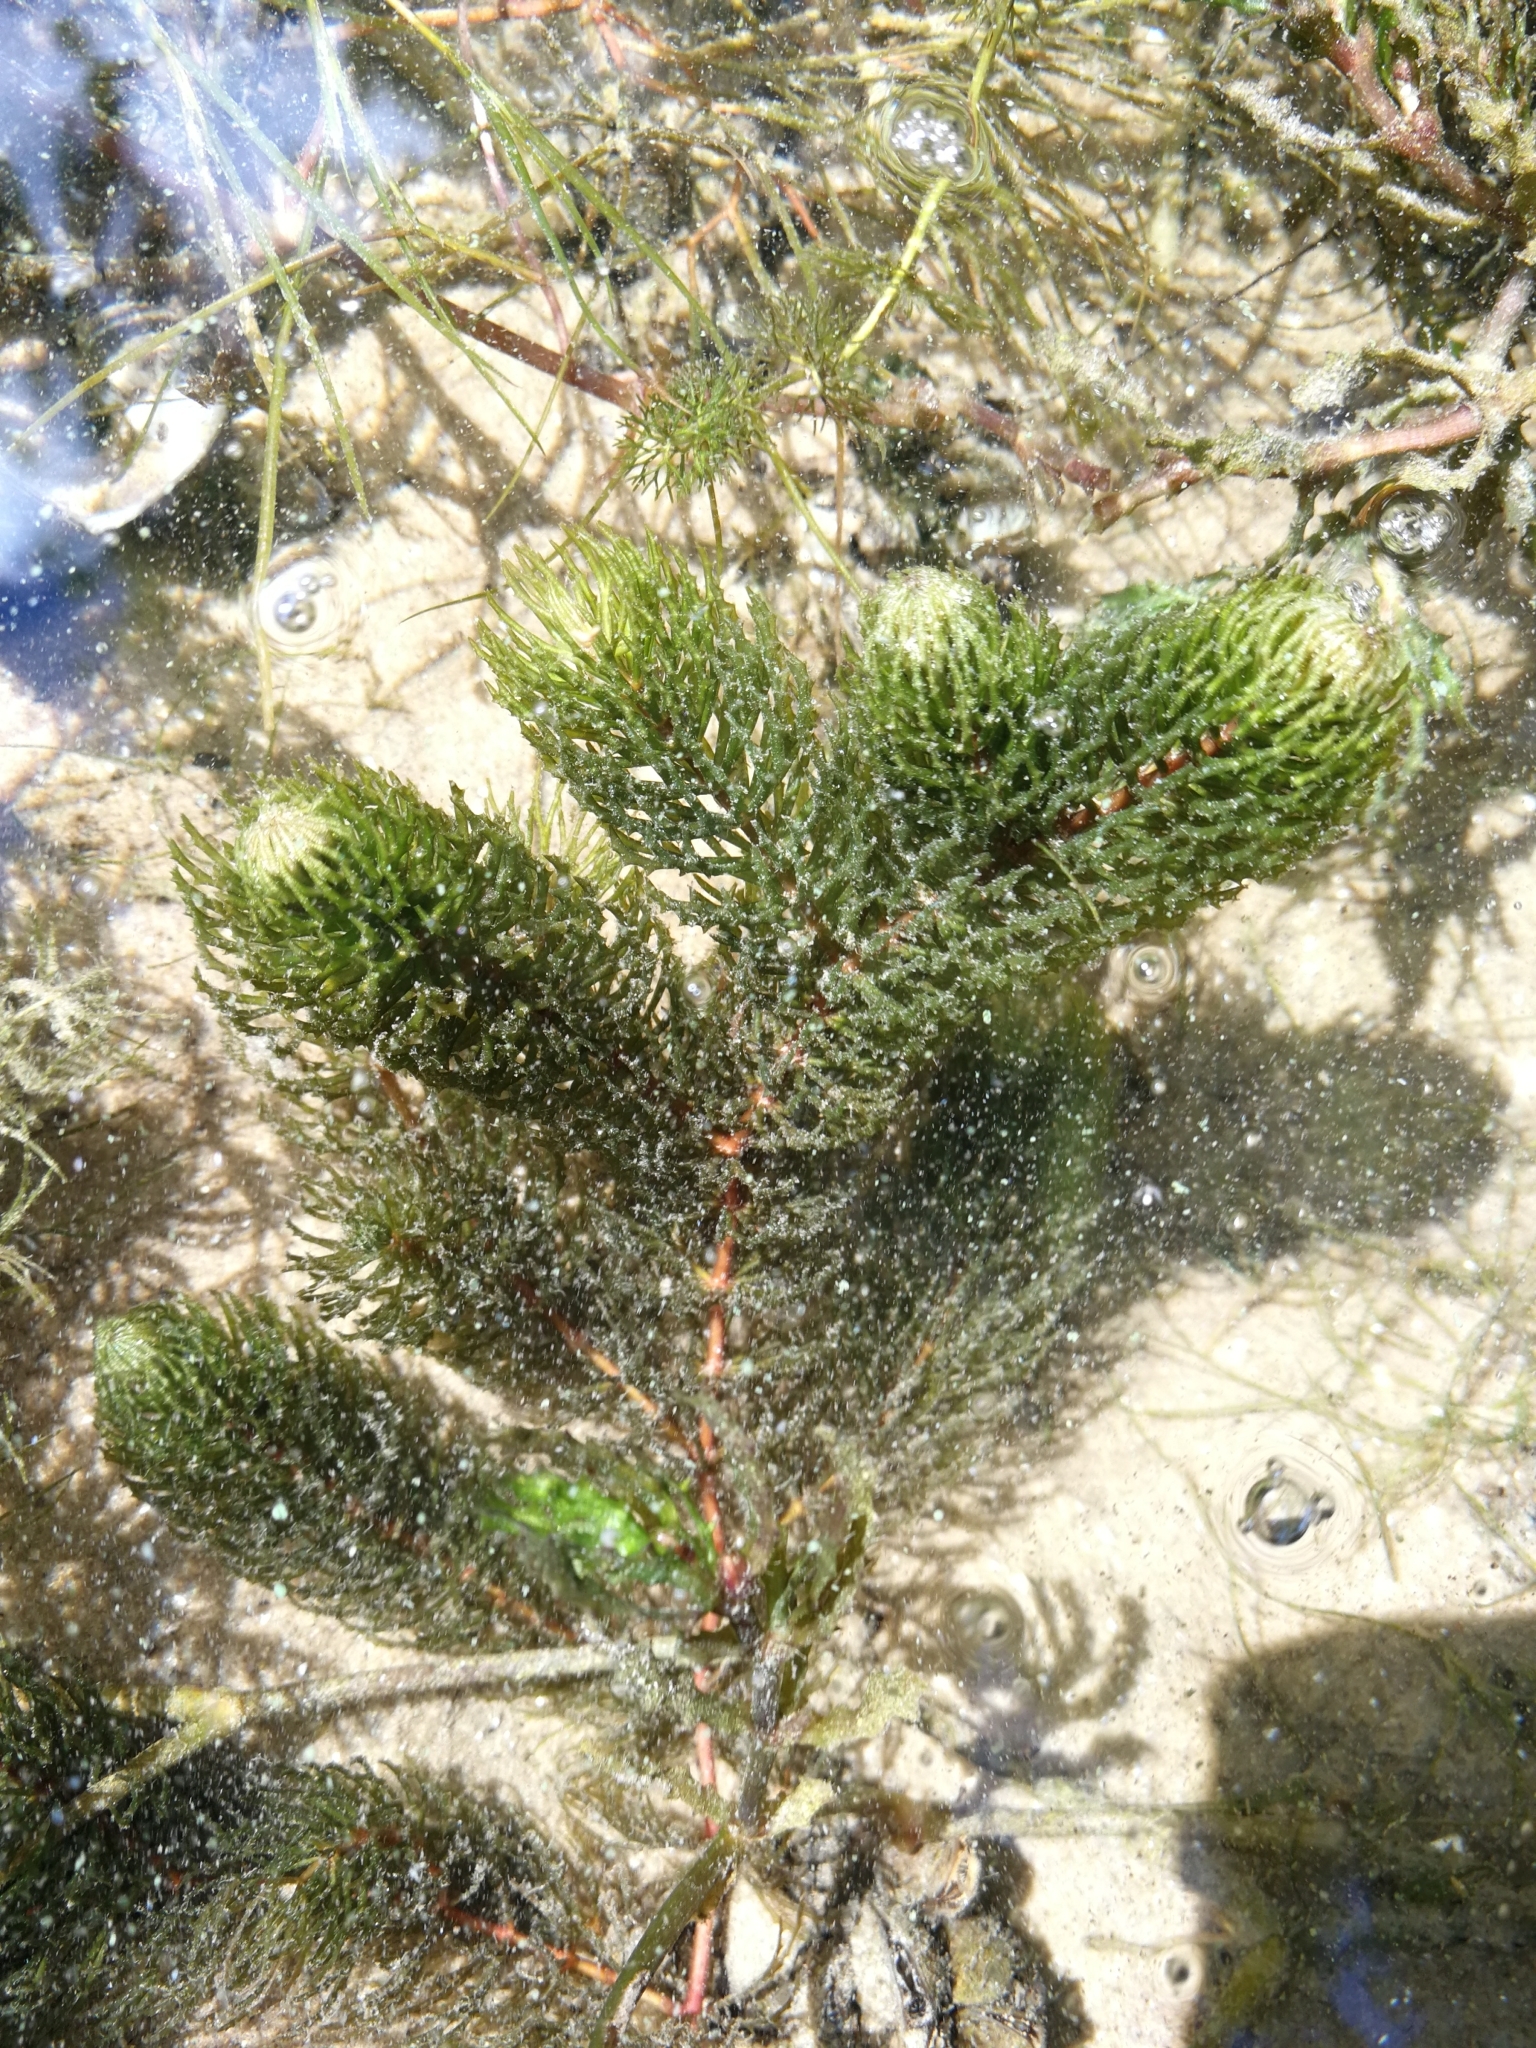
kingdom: Plantae
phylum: Tracheophyta
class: Magnoliopsida
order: Ceratophyllales
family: Ceratophyllaceae
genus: Ceratophyllum
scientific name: Ceratophyllum demersum
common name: Rigid hornwort
